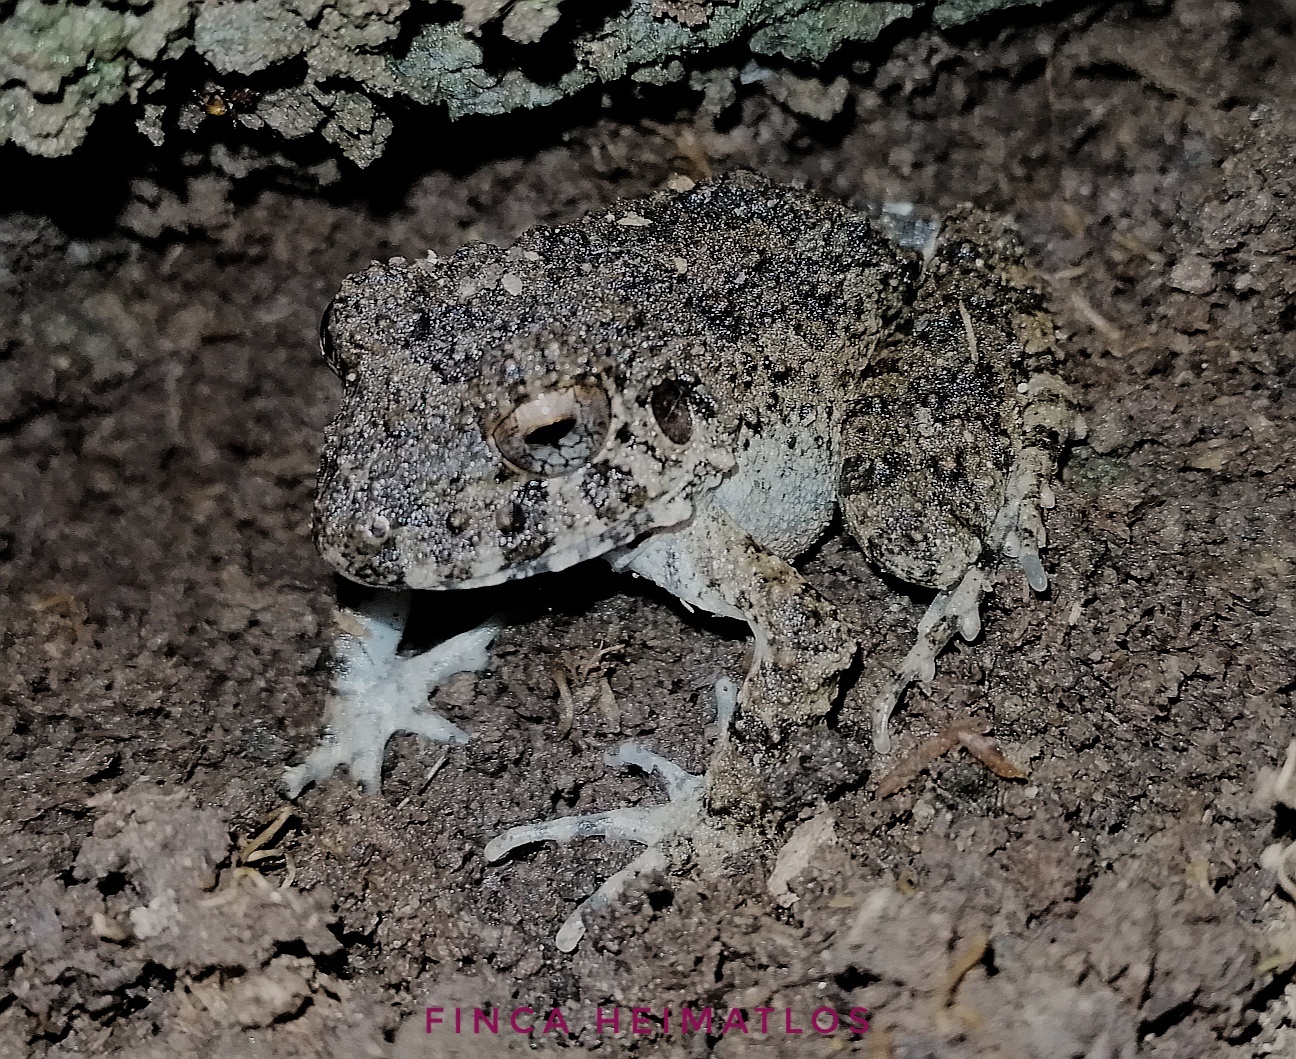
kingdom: Animalia
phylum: Chordata
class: Amphibia
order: Anura
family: Craugastoridae
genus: Oreobates
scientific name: Oreobates quixensis
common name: Common big-headed frog
